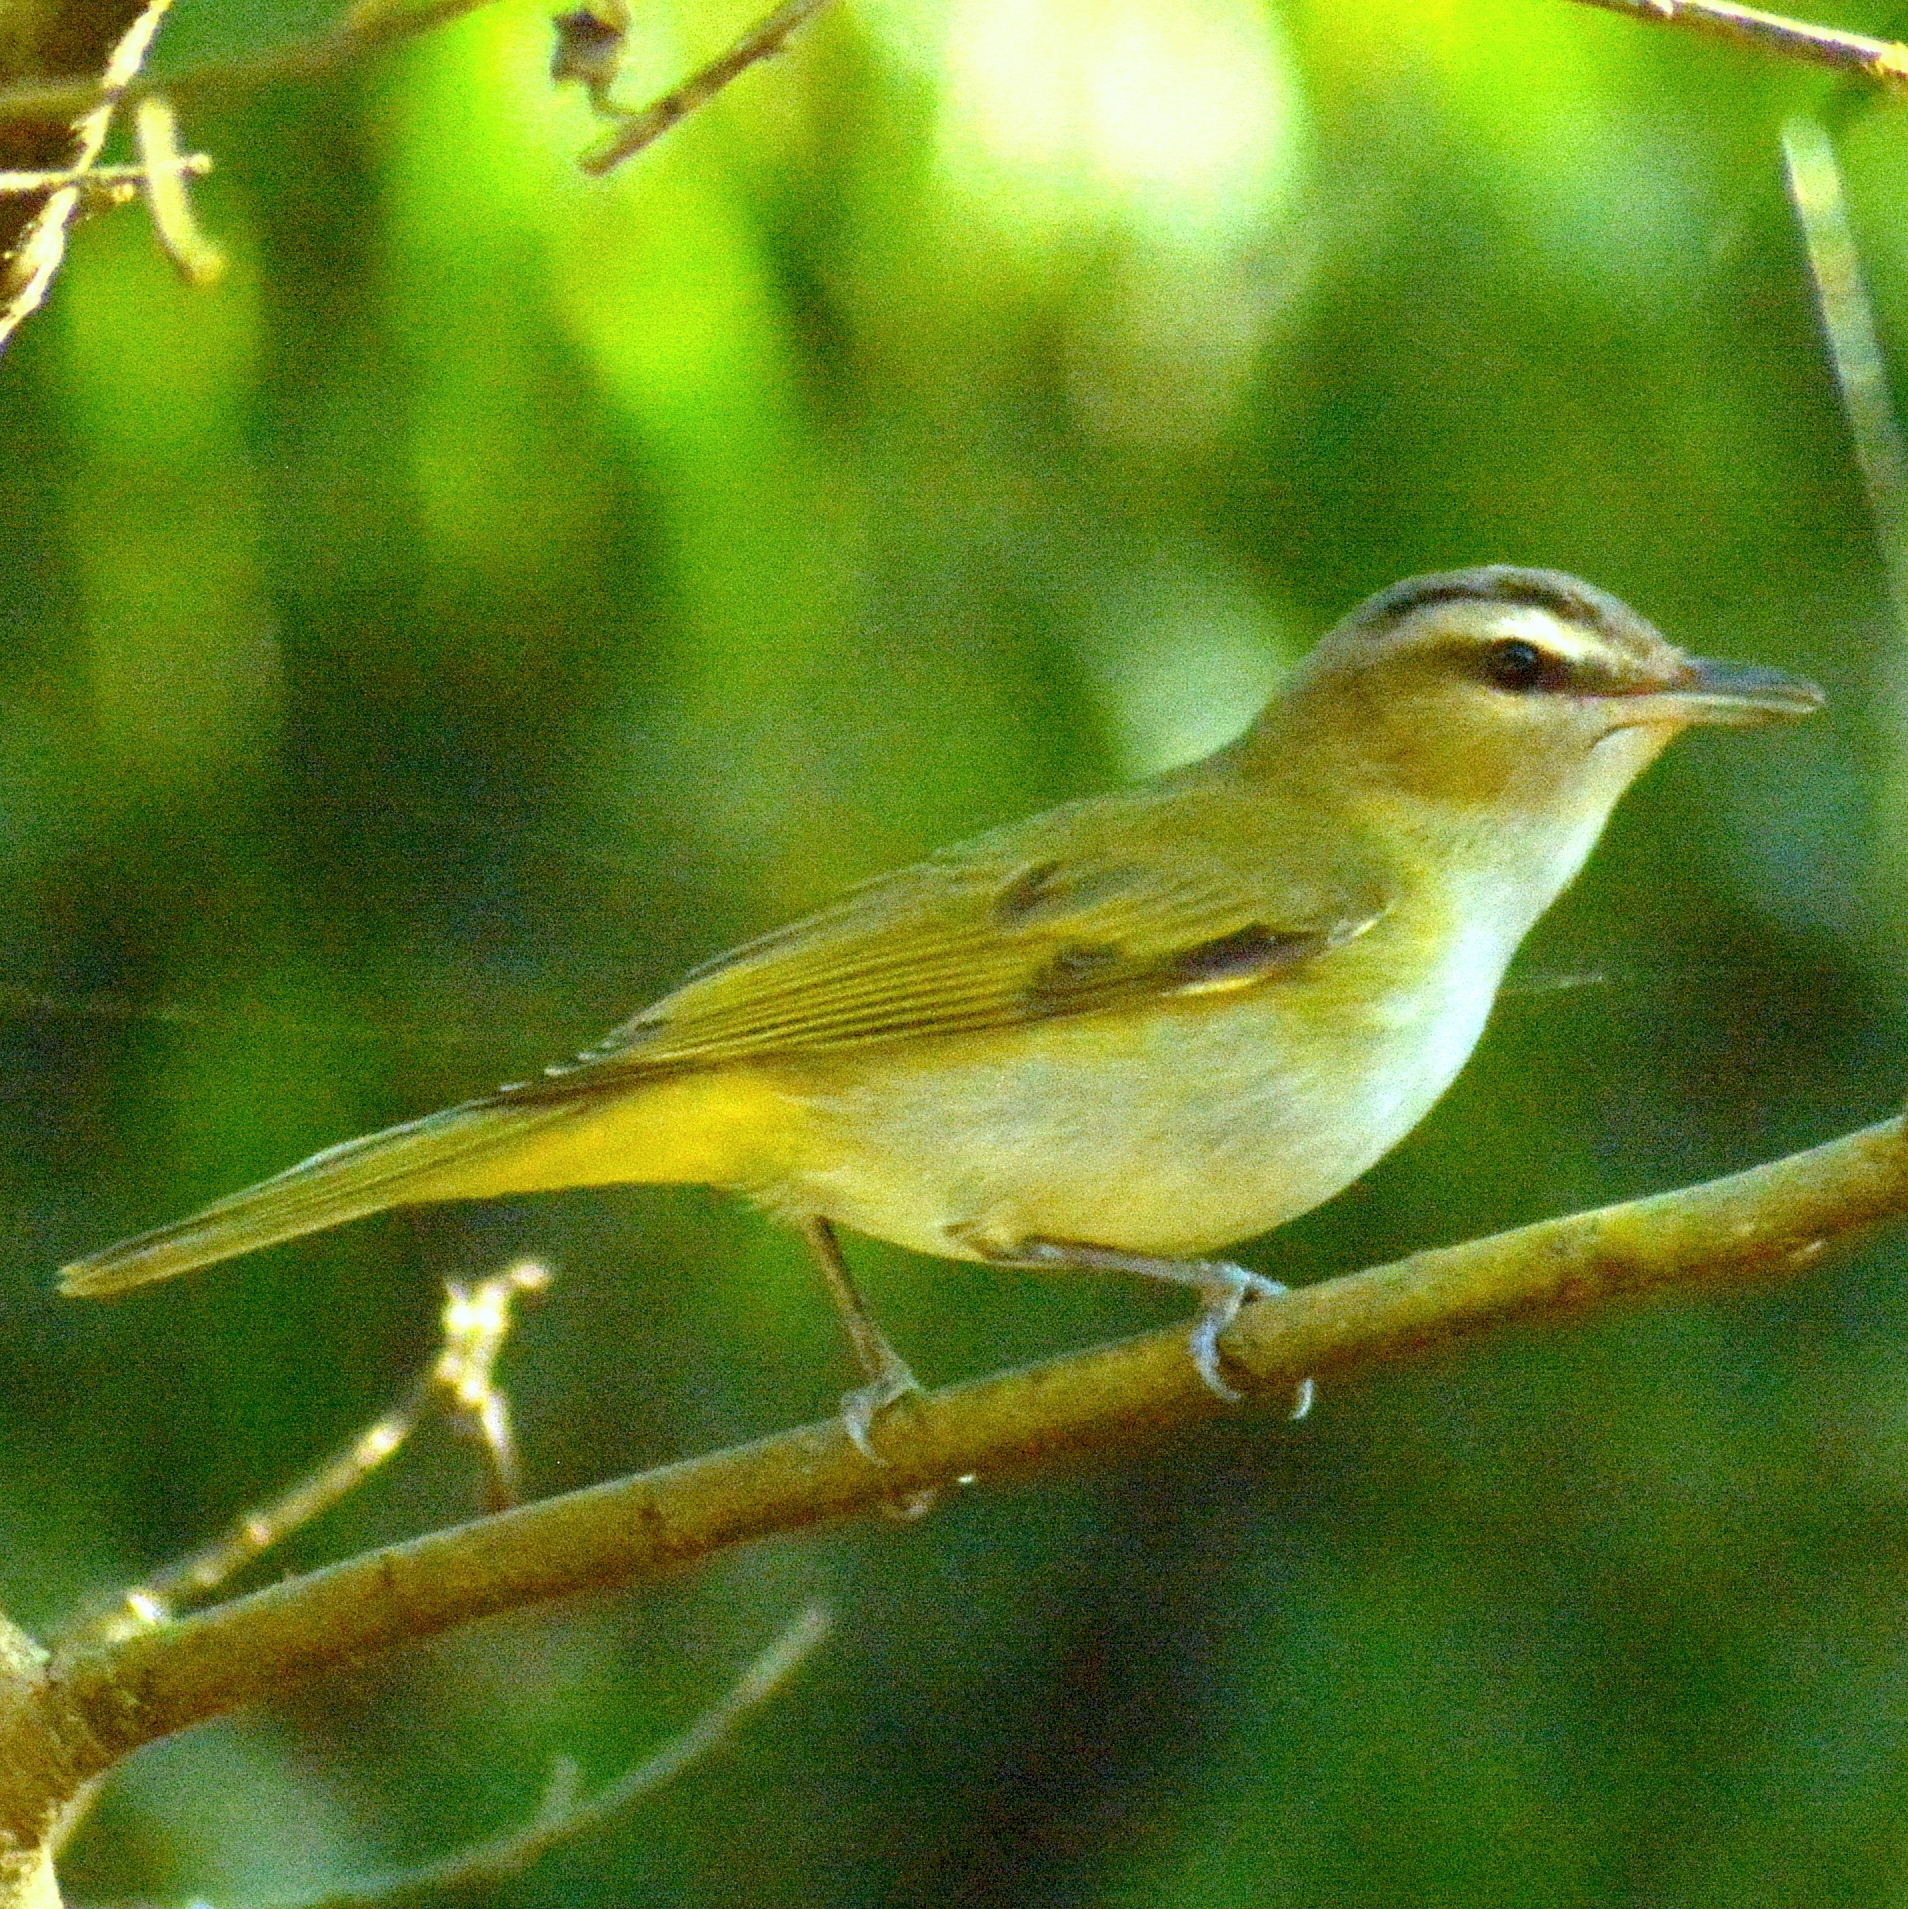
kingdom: Animalia
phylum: Chordata
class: Aves
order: Passeriformes
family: Vireonidae
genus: Vireo
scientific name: Vireo olivaceus
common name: Red-eyed vireo
